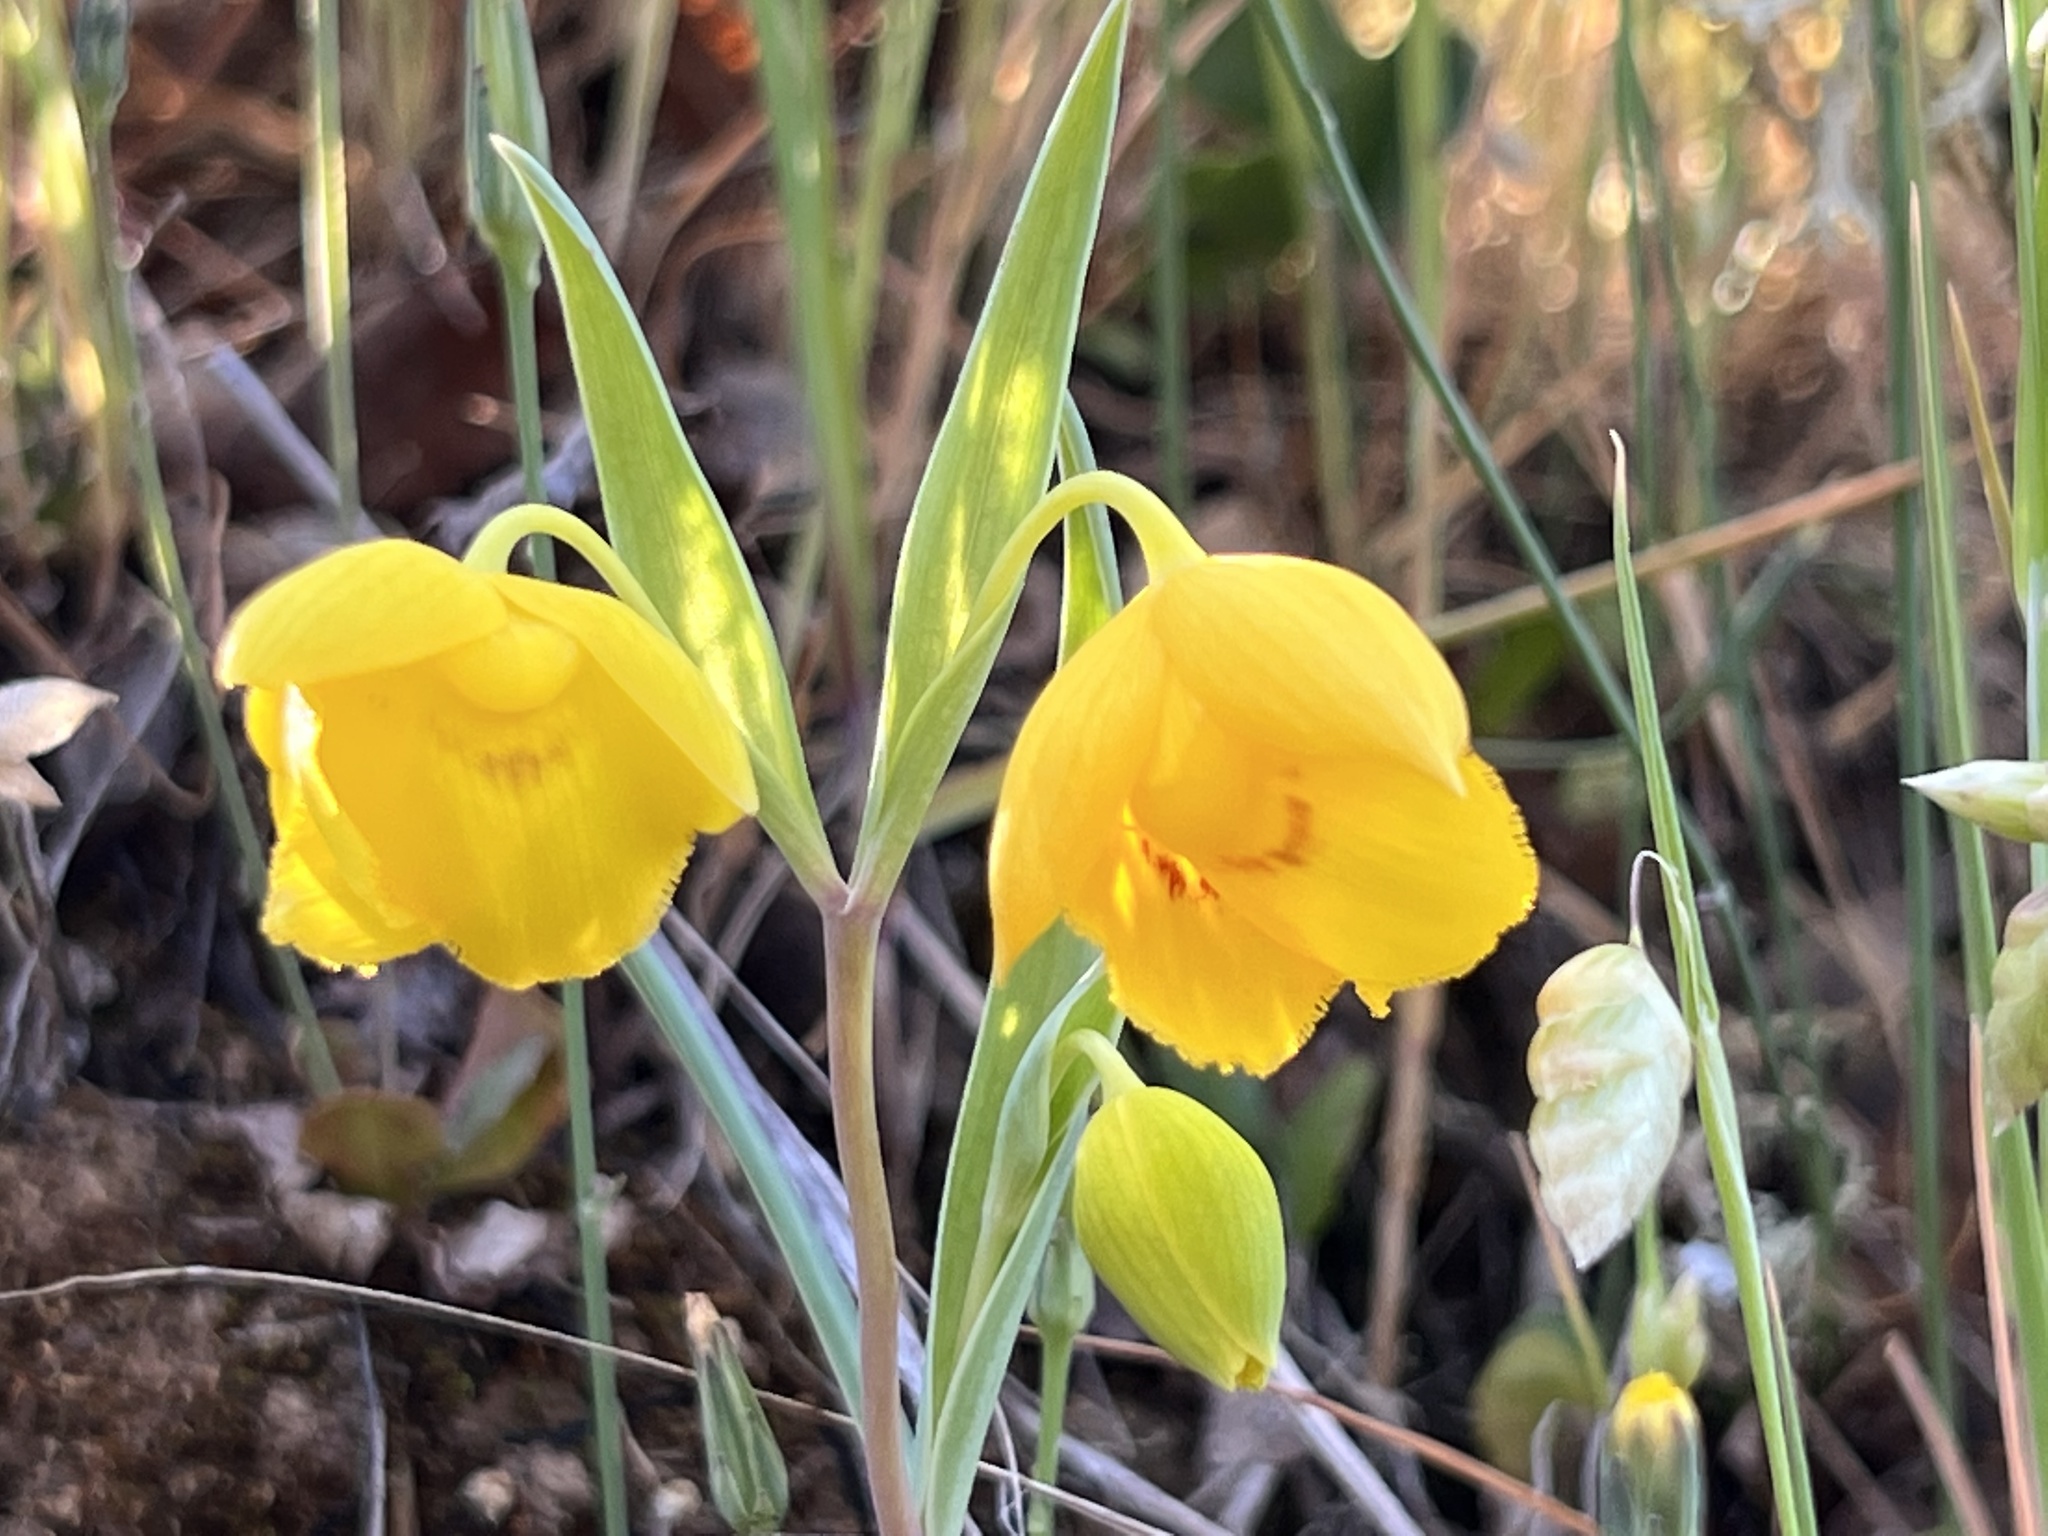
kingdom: Plantae
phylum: Tracheophyta
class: Liliopsida
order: Liliales
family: Liliaceae
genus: Calochortus
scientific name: Calochortus amabilis
